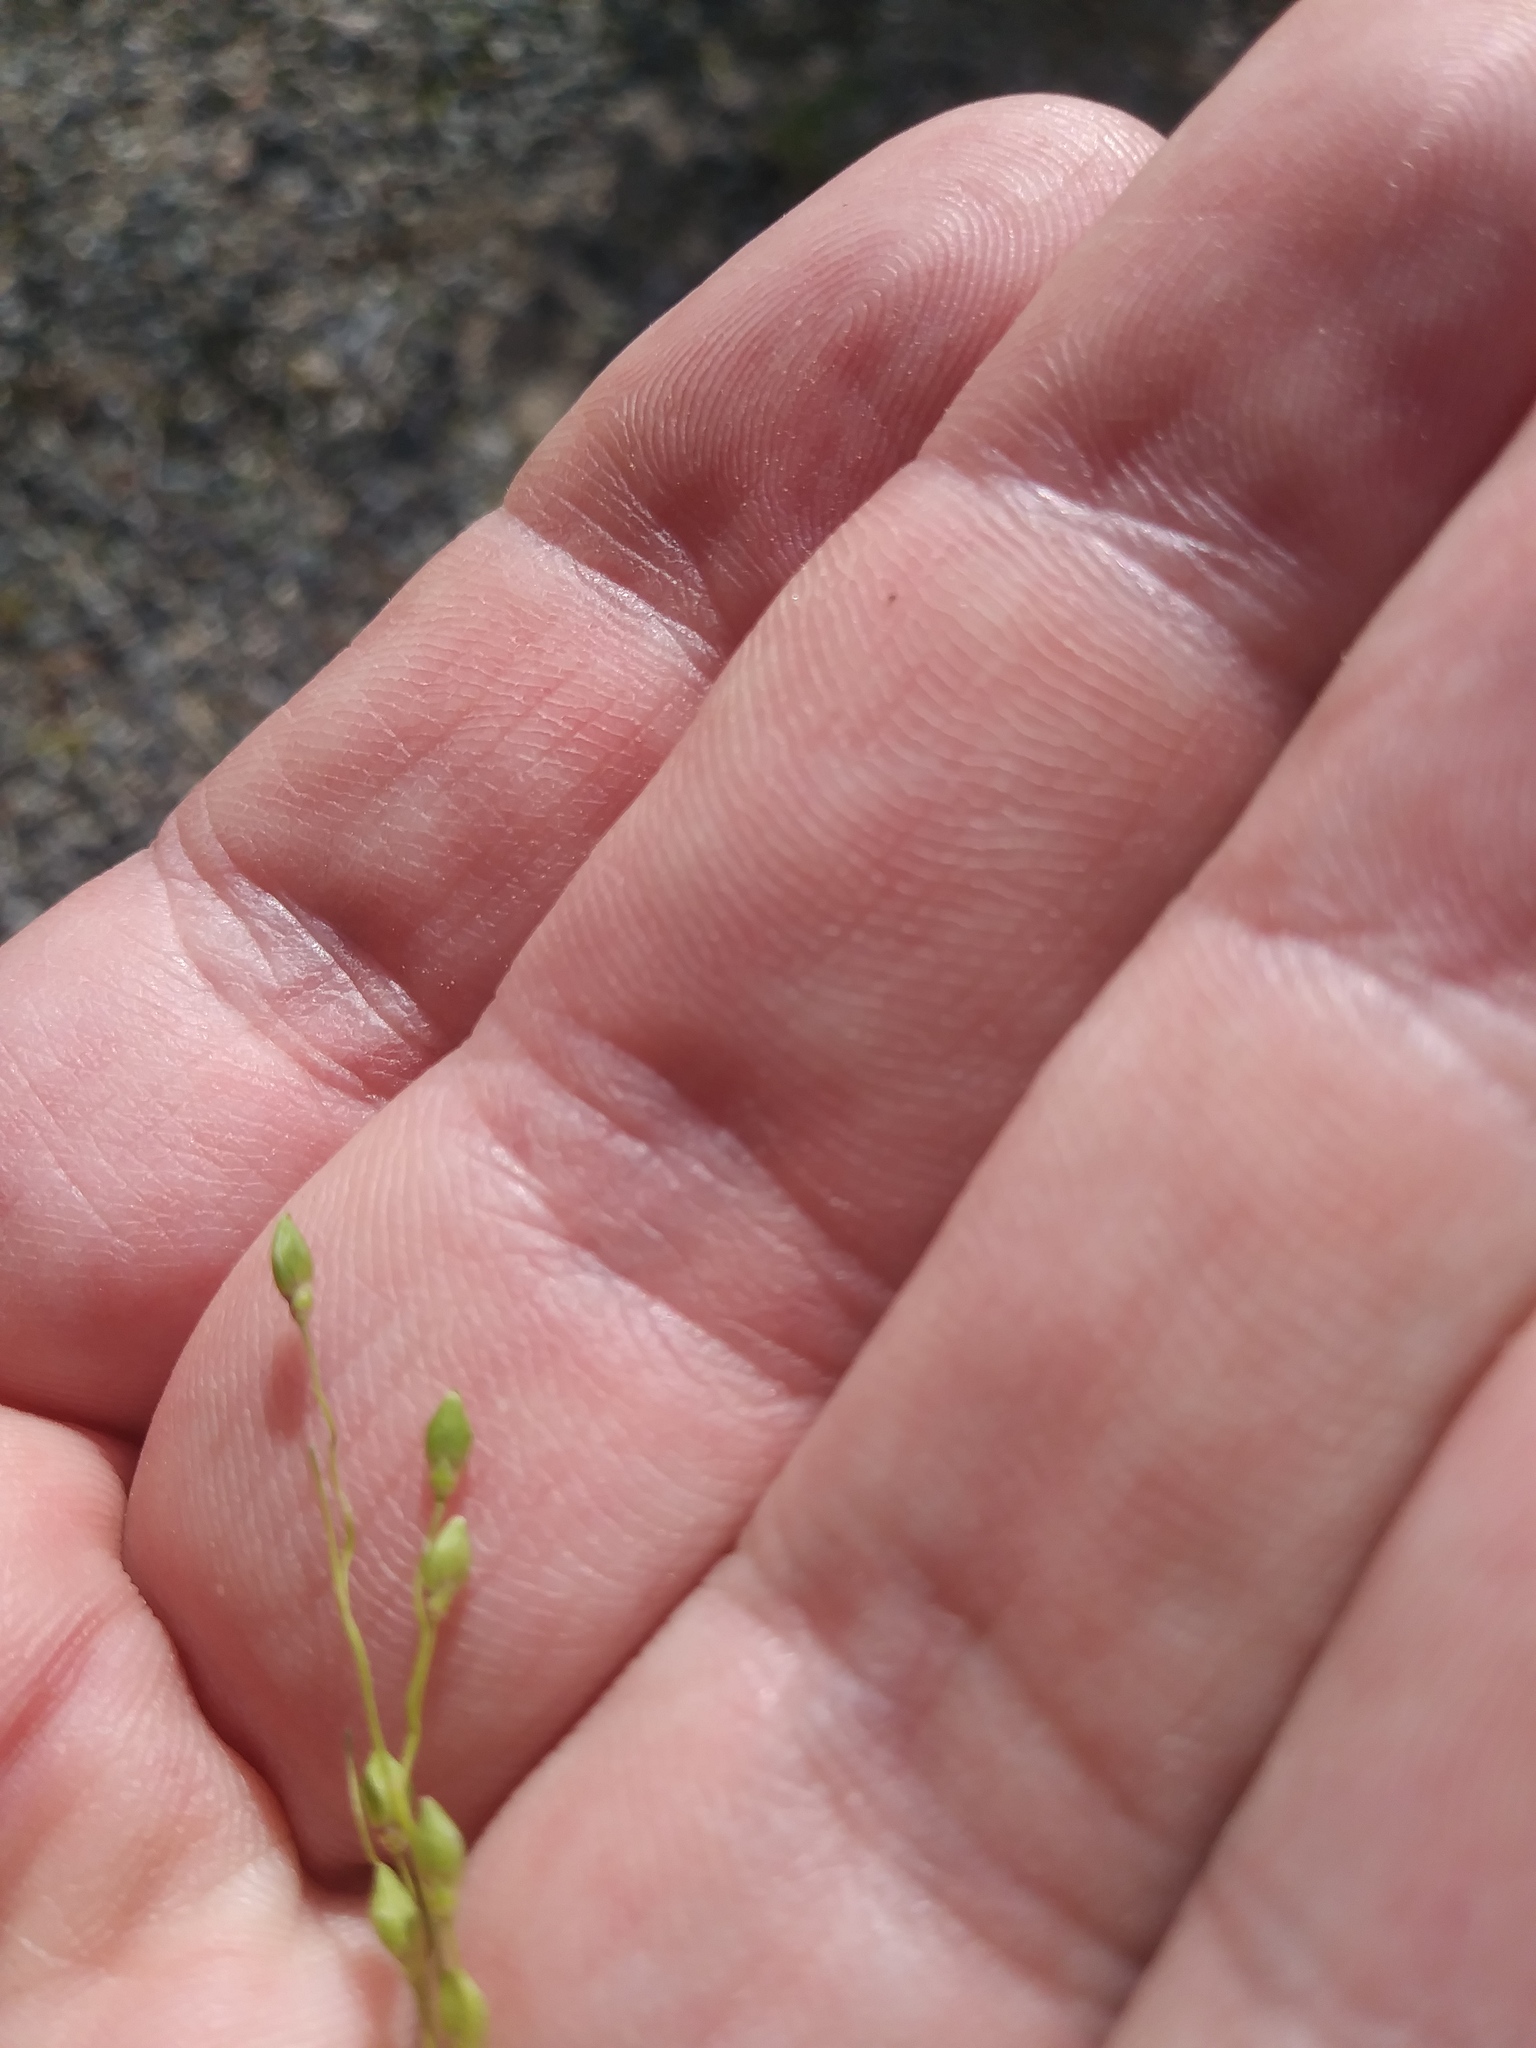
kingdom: Plantae
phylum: Tracheophyta
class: Liliopsida
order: Poales
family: Poaceae
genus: Dichanthelium
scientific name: Dichanthelium depauperatum
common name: Depauperate panicgrass
